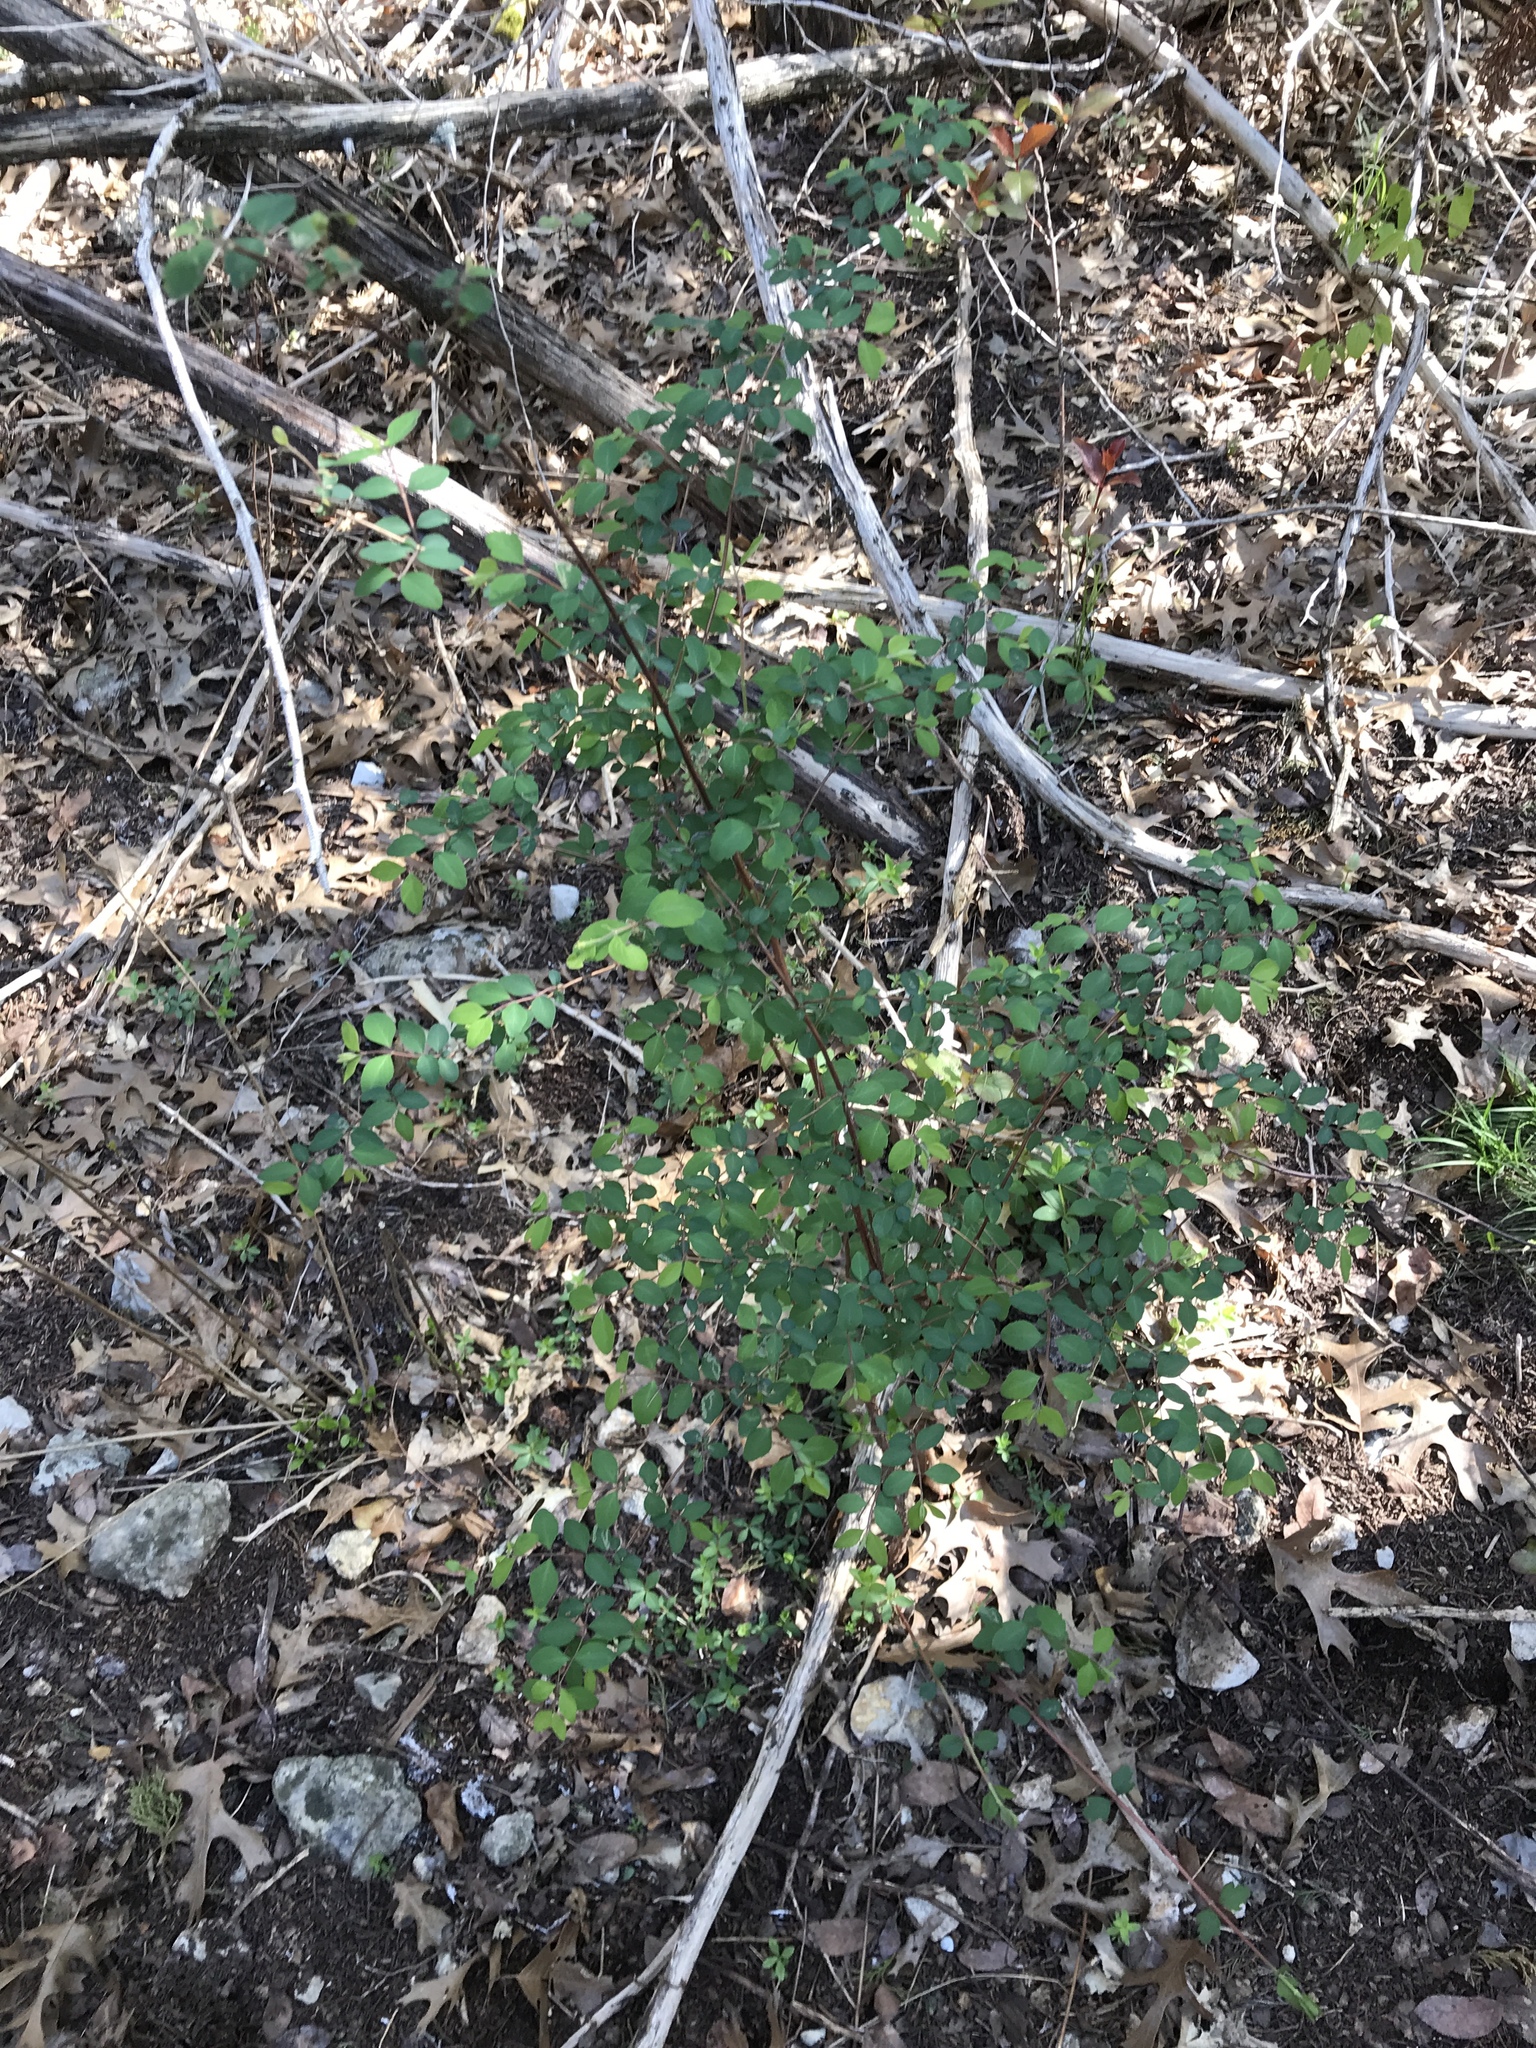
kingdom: Plantae
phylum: Tracheophyta
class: Magnoliopsida
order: Dipsacales
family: Caprifoliaceae
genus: Symphoricarpos
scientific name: Symphoricarpos orbiculatus
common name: Coralberry
